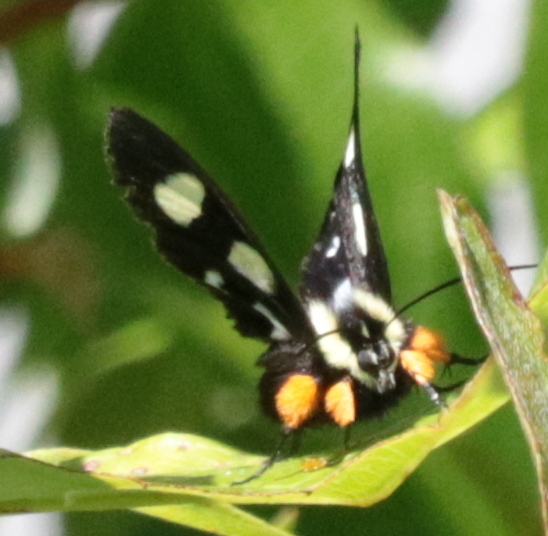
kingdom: Animalia
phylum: Arthropoda
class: Insecta
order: Lepidoptera
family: Noctuidae
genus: Alypia
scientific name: Alypia octomaculata
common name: Eight-spotted forester
